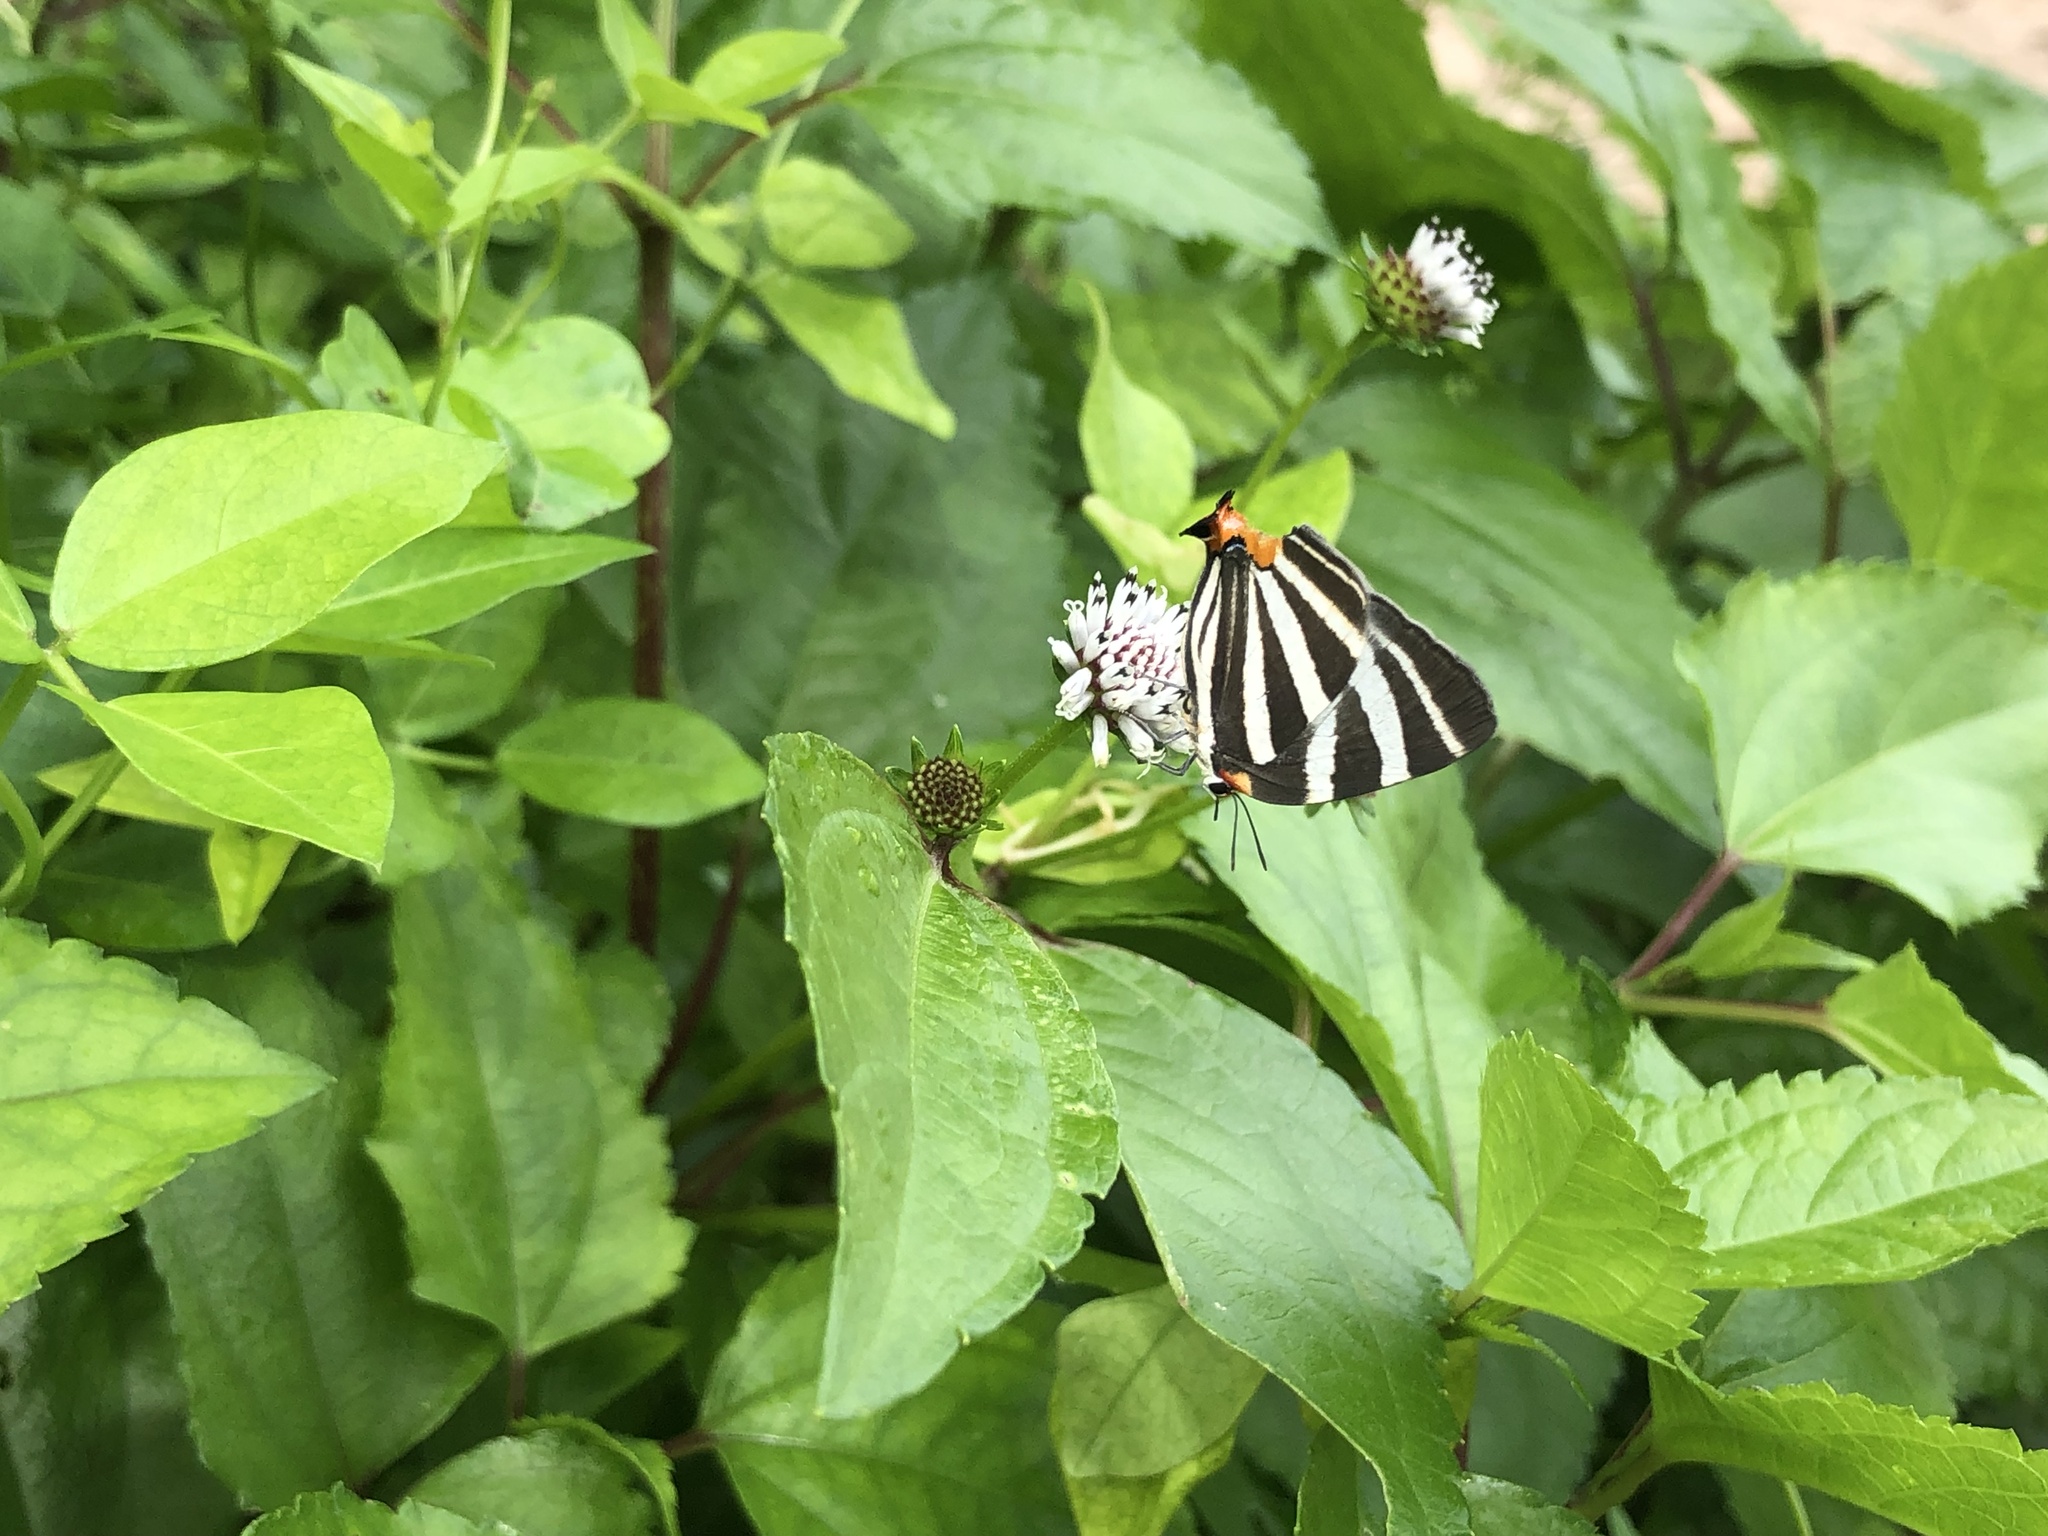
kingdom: Animalia
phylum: Arthropoda
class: Insecta
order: Lepidoptera
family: Lycaenidae
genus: Thecla
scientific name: Thecla bathildis
